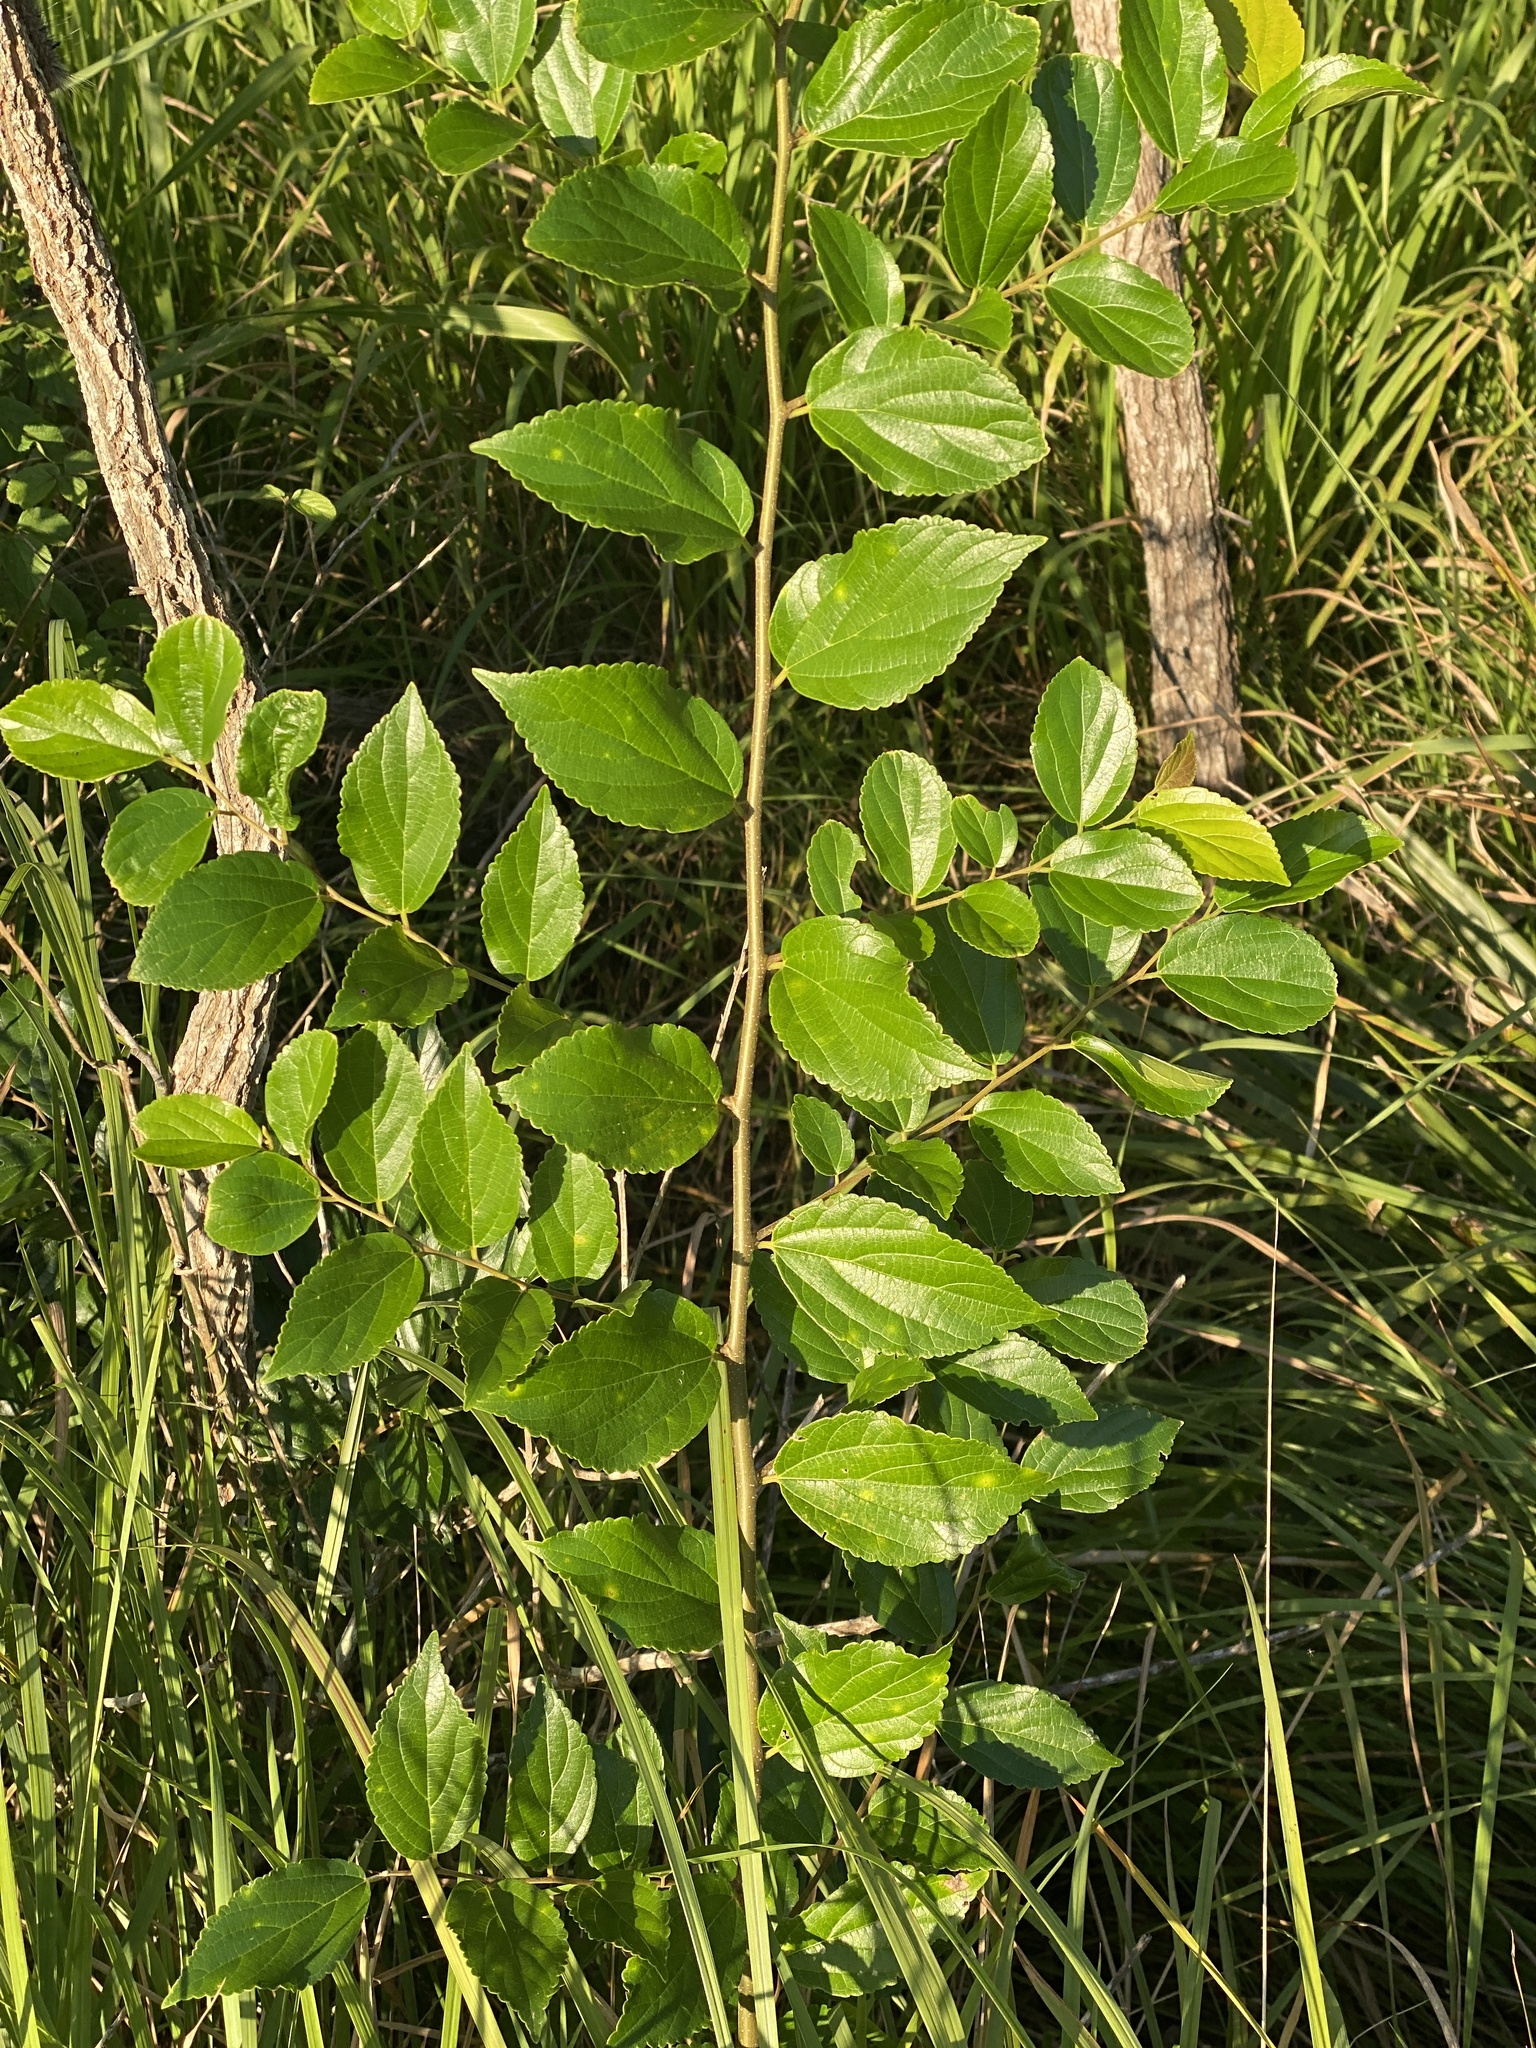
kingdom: Plantae
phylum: Tracheophyta
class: Magnoliopsida
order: Rosales
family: Cannabaceae
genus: Celtis
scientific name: Celtis sinensis
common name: Chinese hackberry
